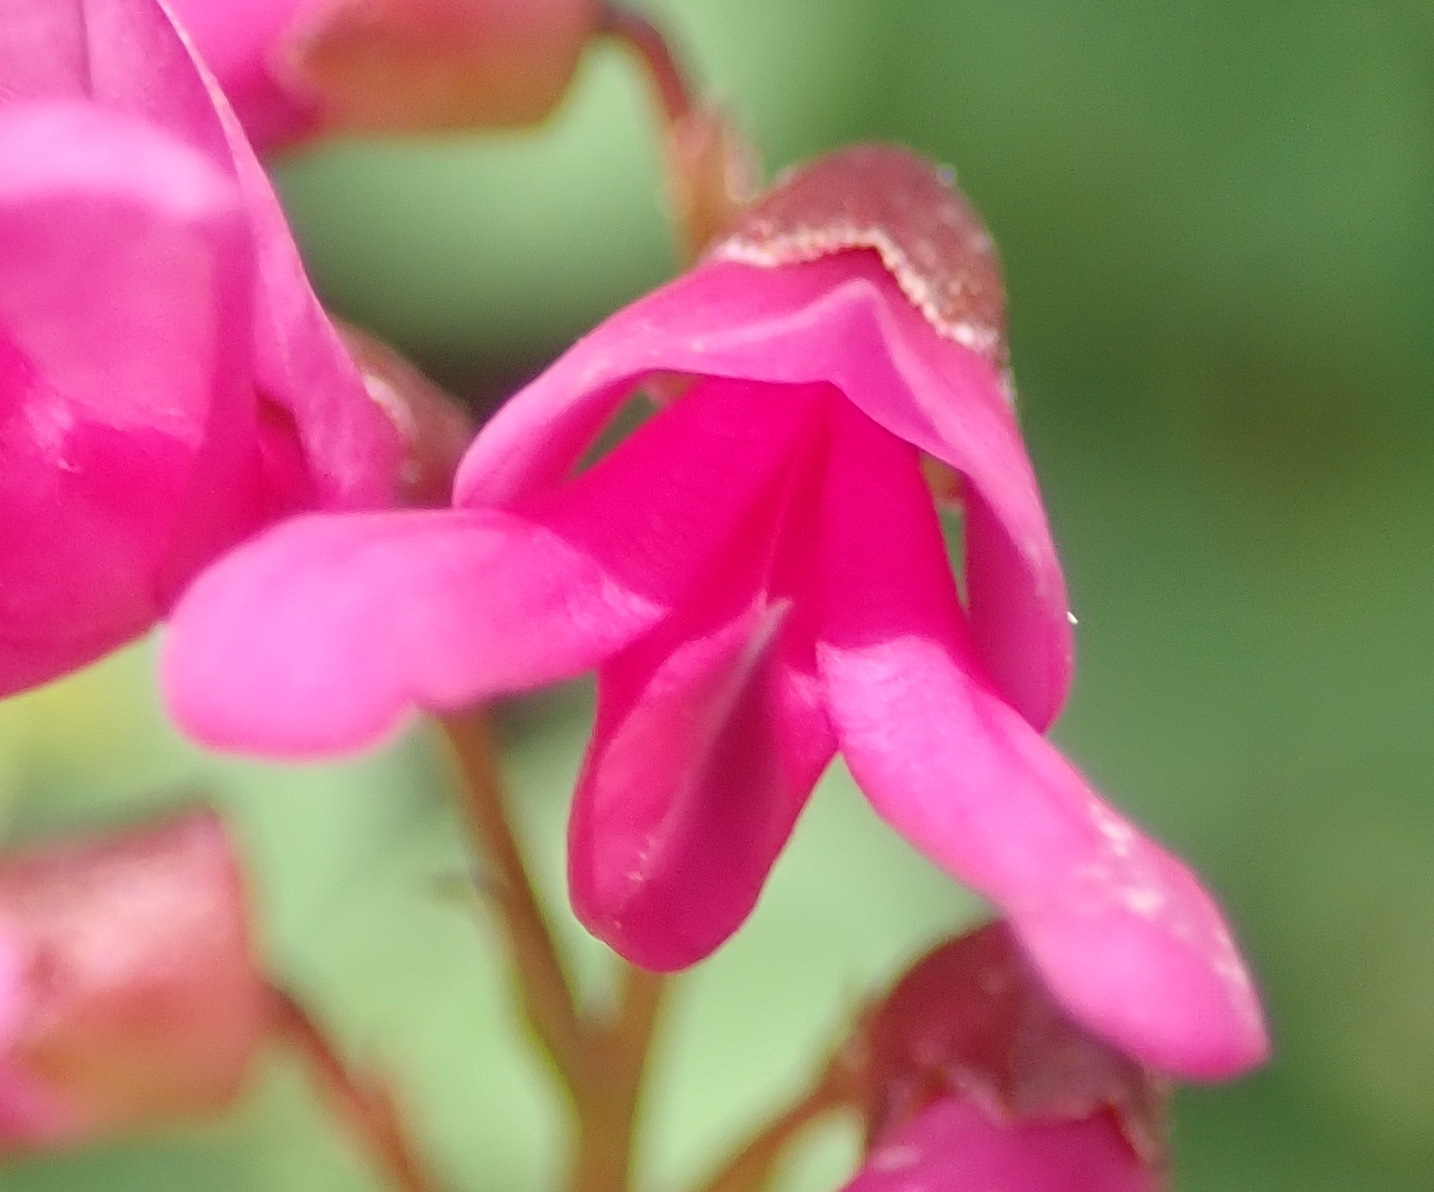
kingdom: Plantae
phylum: Tracheophyta
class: Magnoliopsida
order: Fabales
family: Fabaceae
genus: Hypocalyptus
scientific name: Hypocalyptus oxalidifolius
